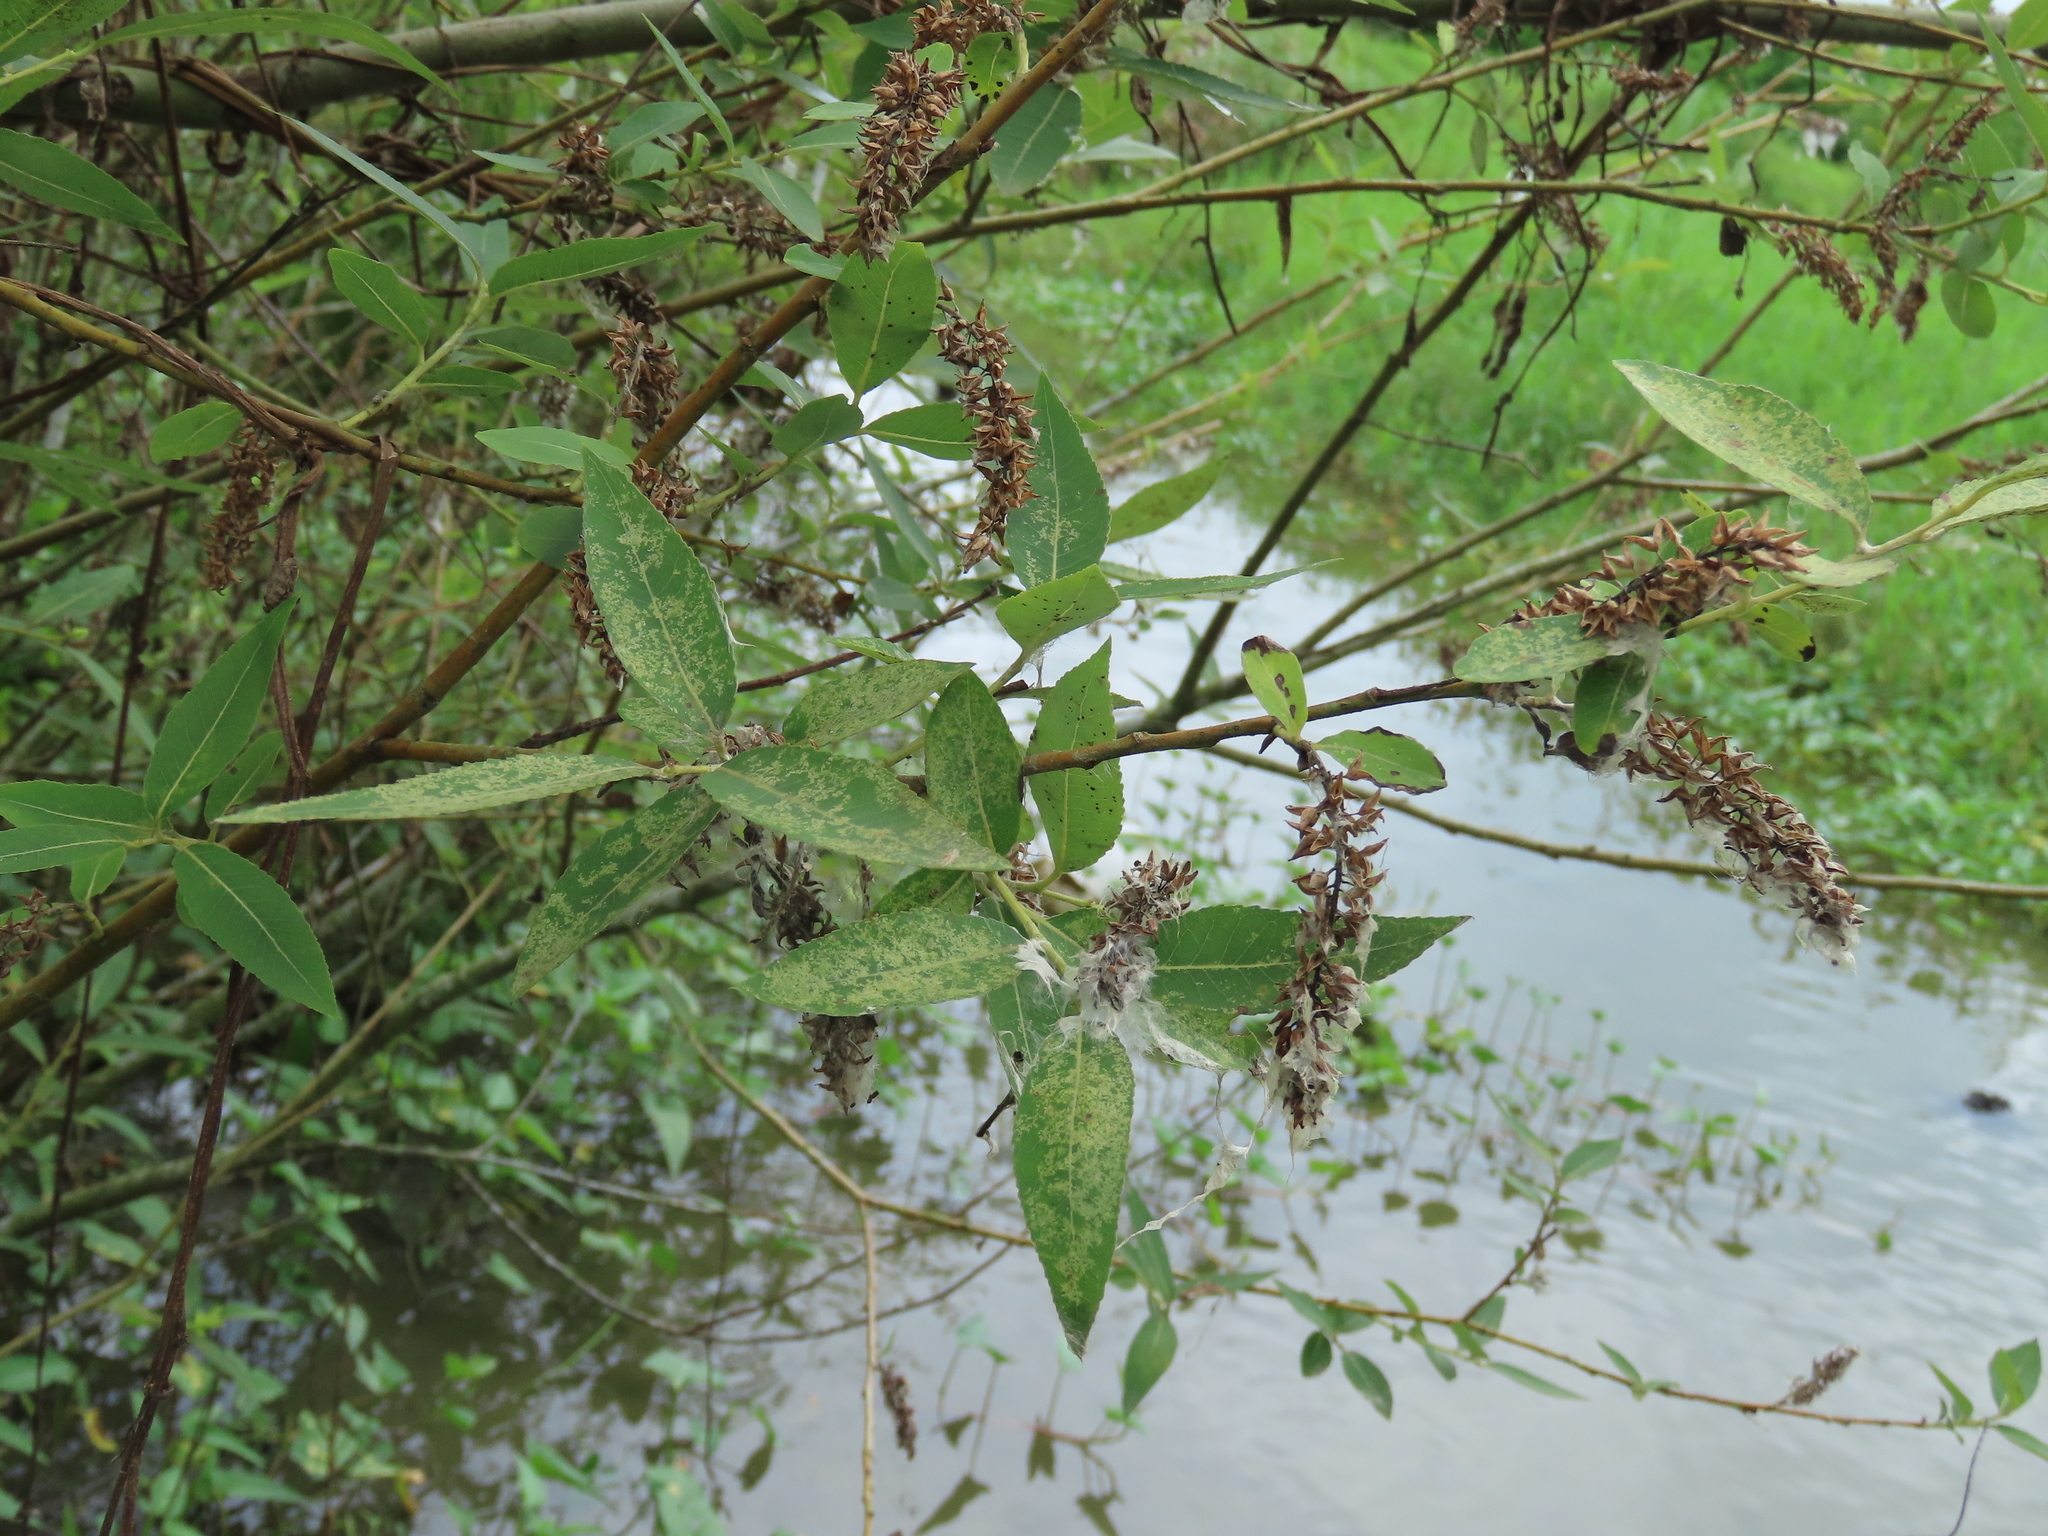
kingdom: Plantae
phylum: Tracheophyta
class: Magnoliopsida
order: Malpighiales
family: Salicaceae
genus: Salix
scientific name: Salix mesnyi
